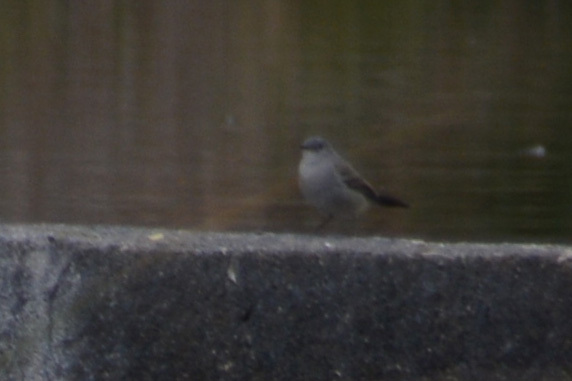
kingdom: Animalia
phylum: Chordata
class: Aves
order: Passeriformes
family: Tyrannidae
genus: Serpophaga
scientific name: Serpophaga nigricans
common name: Sooty tyrannulet
